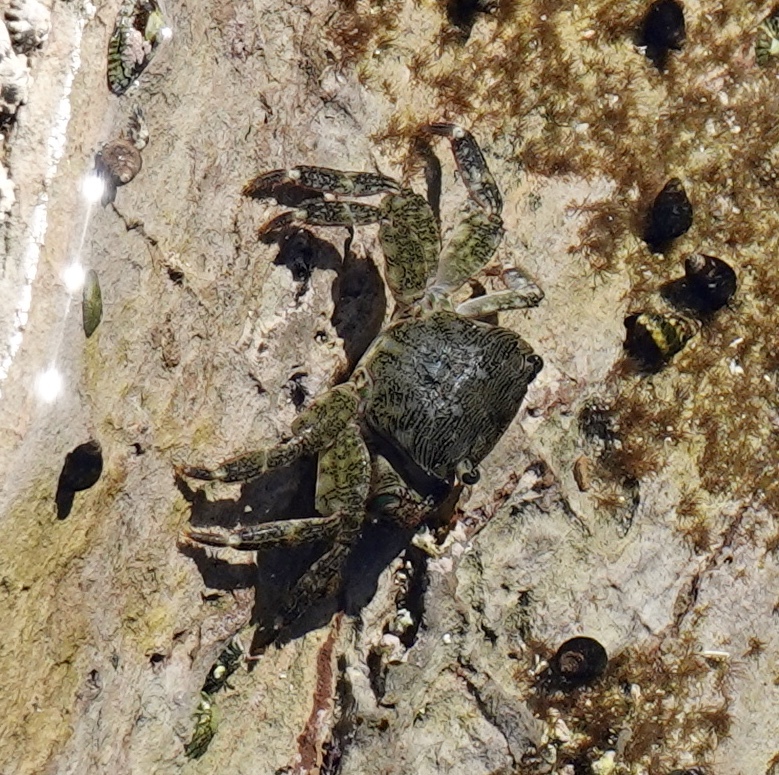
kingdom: Animalia
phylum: Arthropoda
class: Malacostraca
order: Decapoda
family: Grapsidae
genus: Pachygrapsus
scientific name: Pachygrapsus crassipes
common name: Striped shore crab
